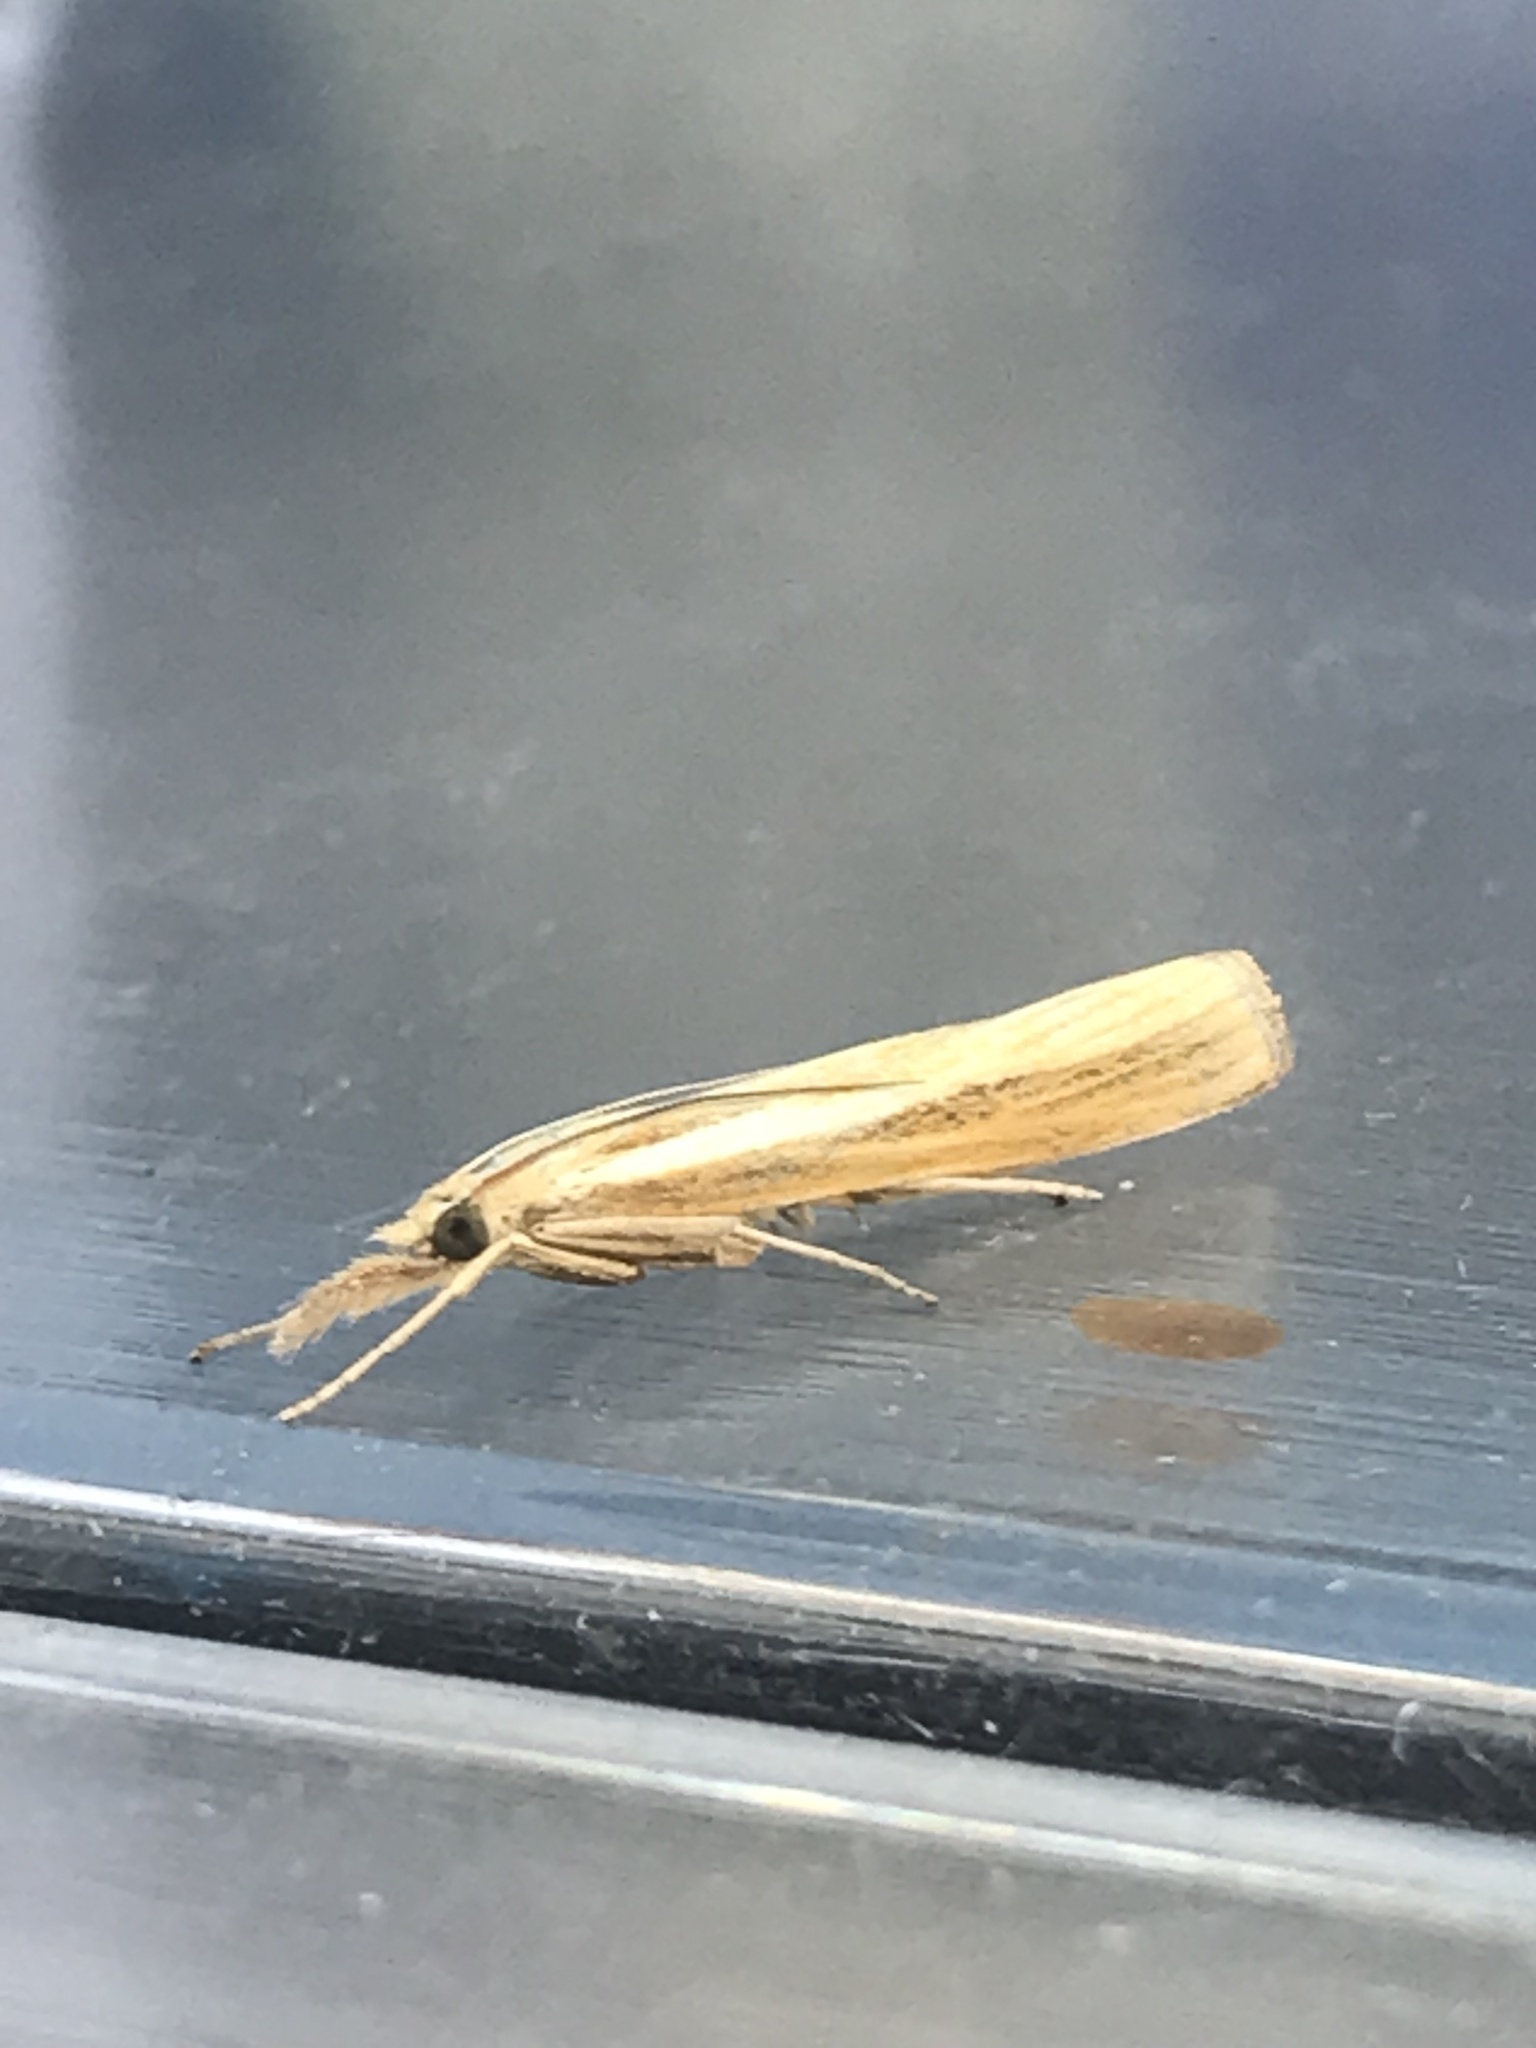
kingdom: Animalia
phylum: Arthropoda
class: Insecta
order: Lepidoptera
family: Crambidae
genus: Agriphila
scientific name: Agriphila tristellus
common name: Common grass-veneer
